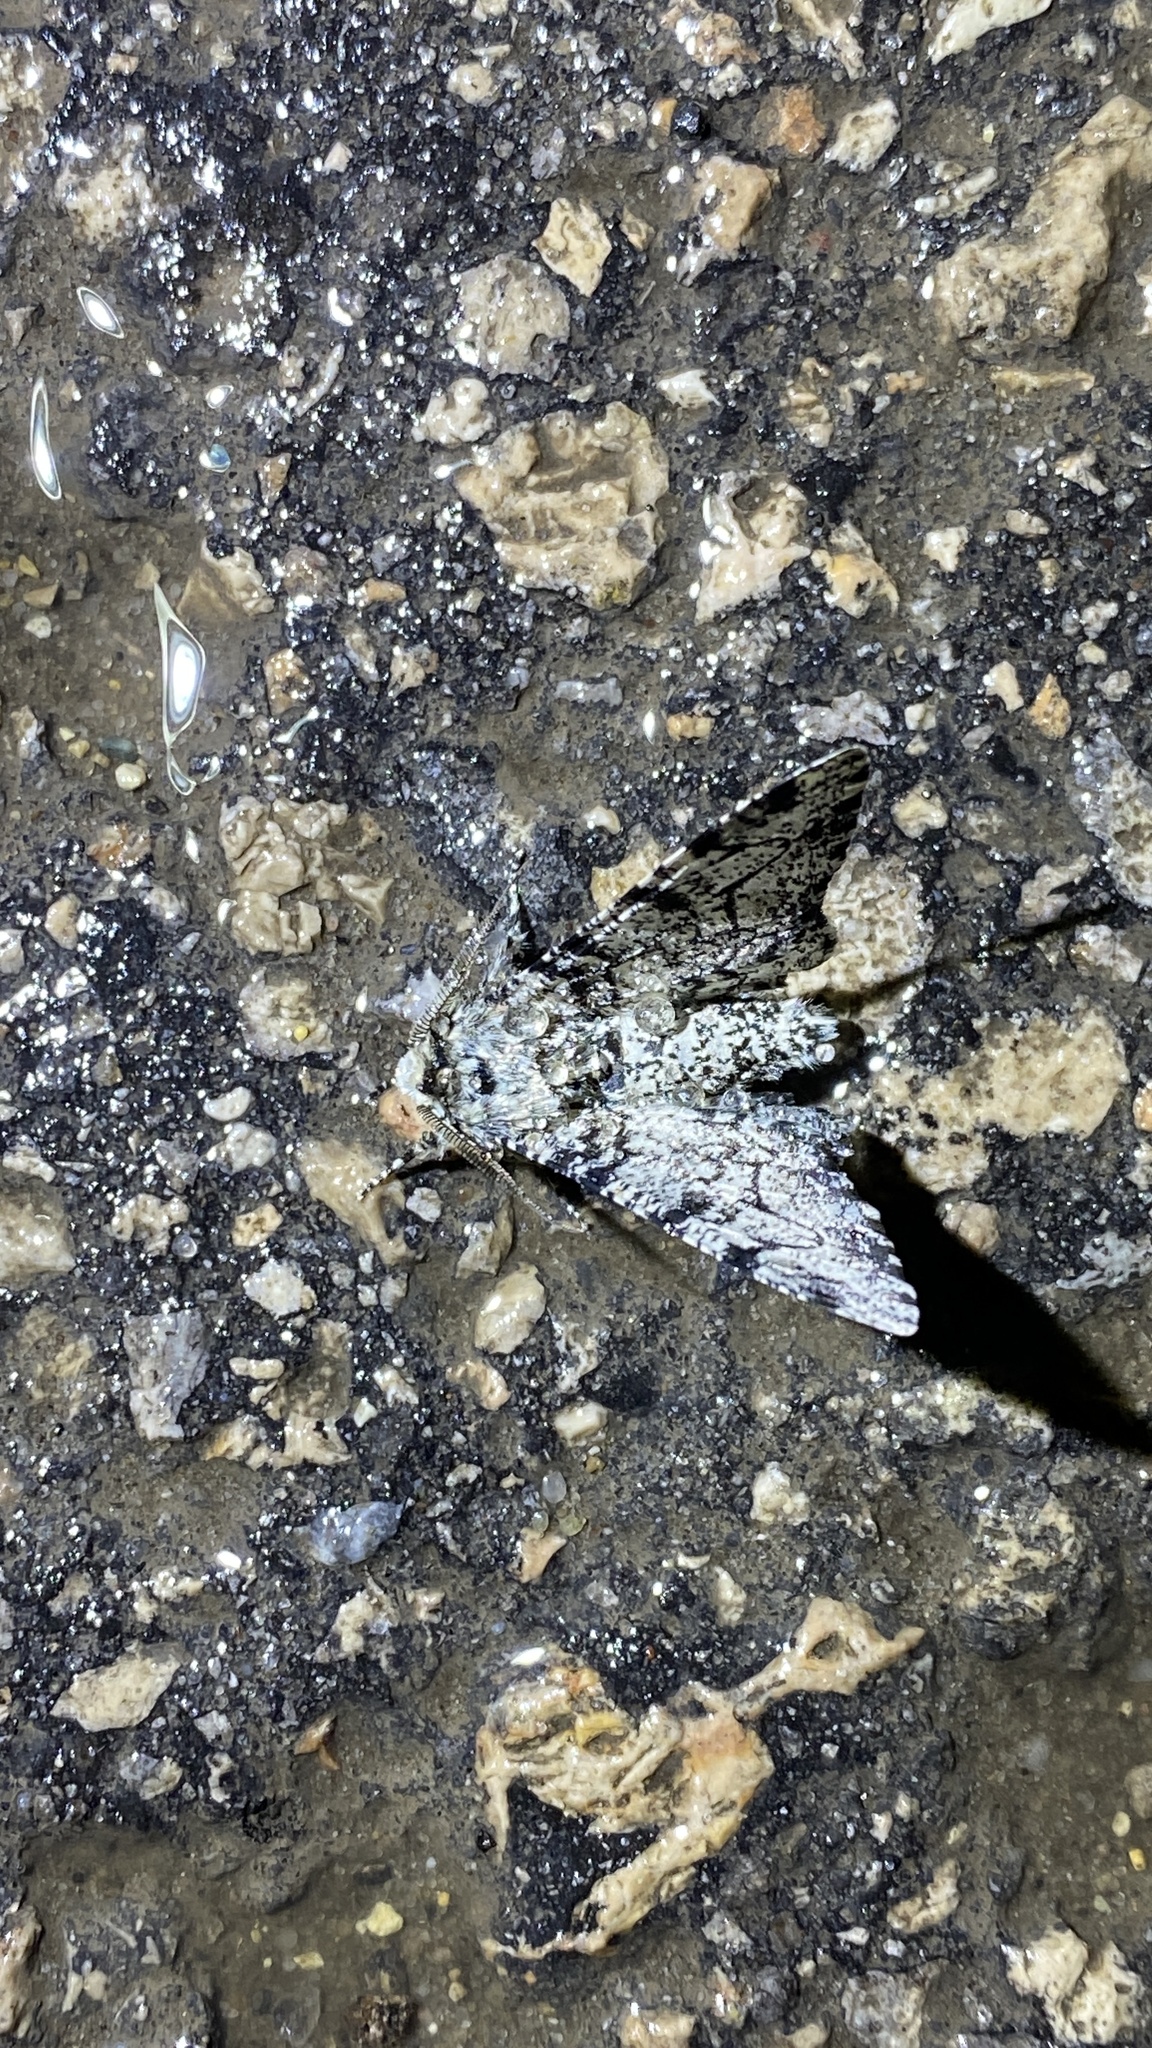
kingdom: Animalia
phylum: Arthropoda
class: Insecta
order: Lepidoptera
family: Geometridae
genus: Biston
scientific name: Biston betularia
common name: Peppered moth
